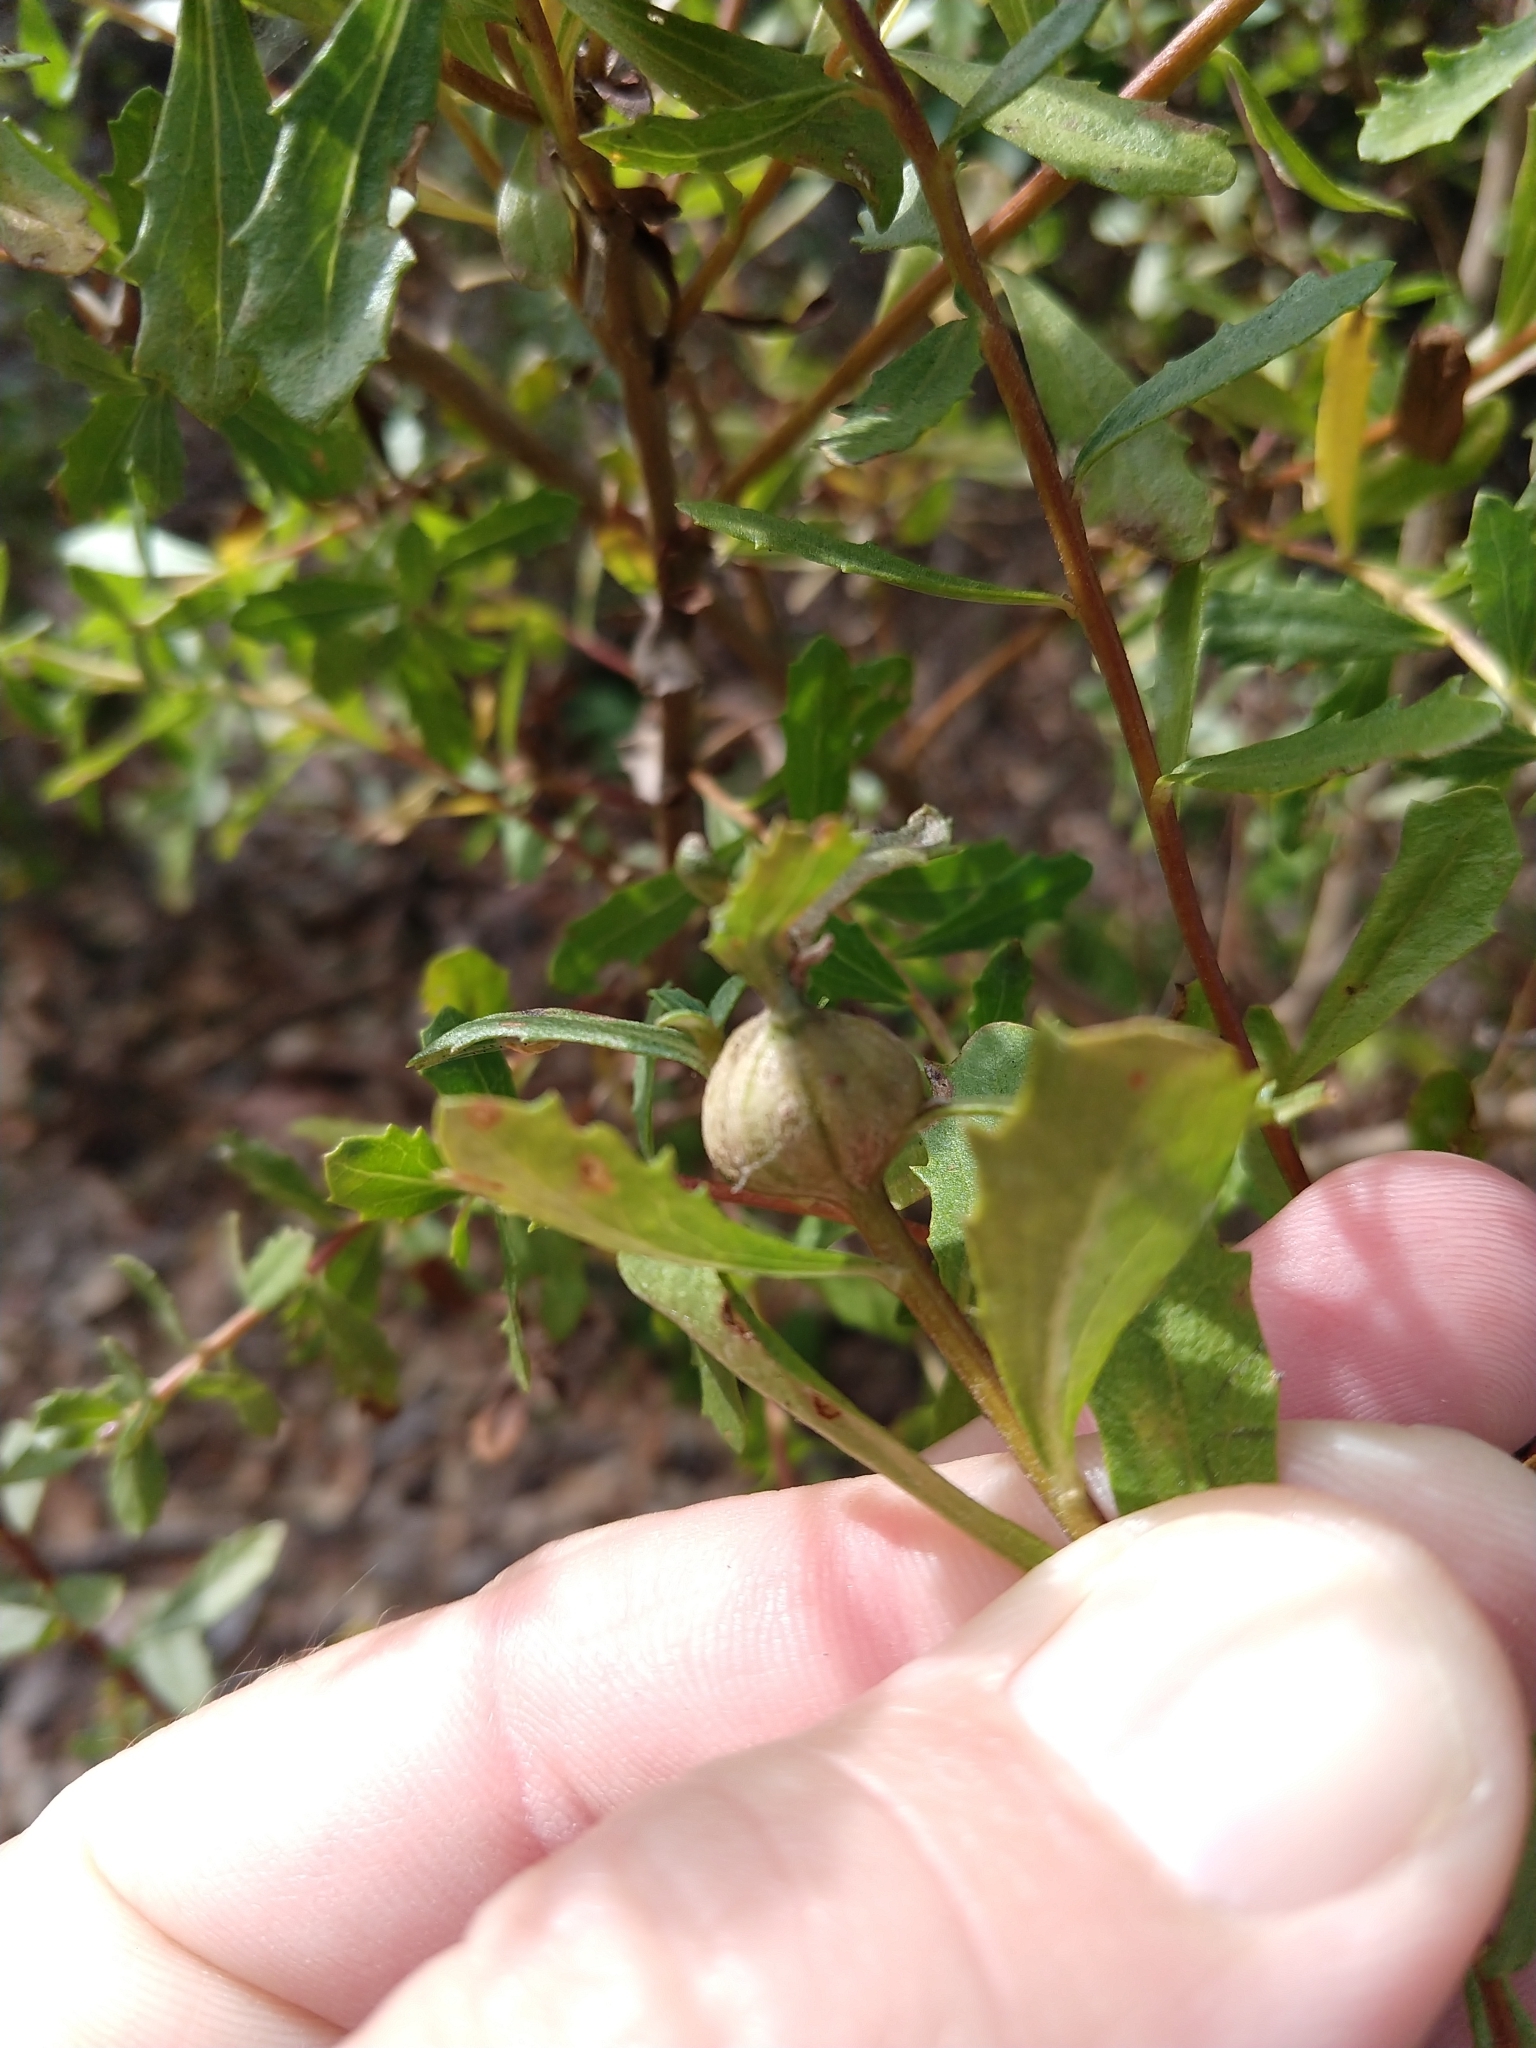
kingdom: Animalia
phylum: Arthropoda
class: Insecta
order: Lepidoptera
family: Gelechiidae
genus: Gnorimoschema
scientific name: Gnorimoschema baccharisella
